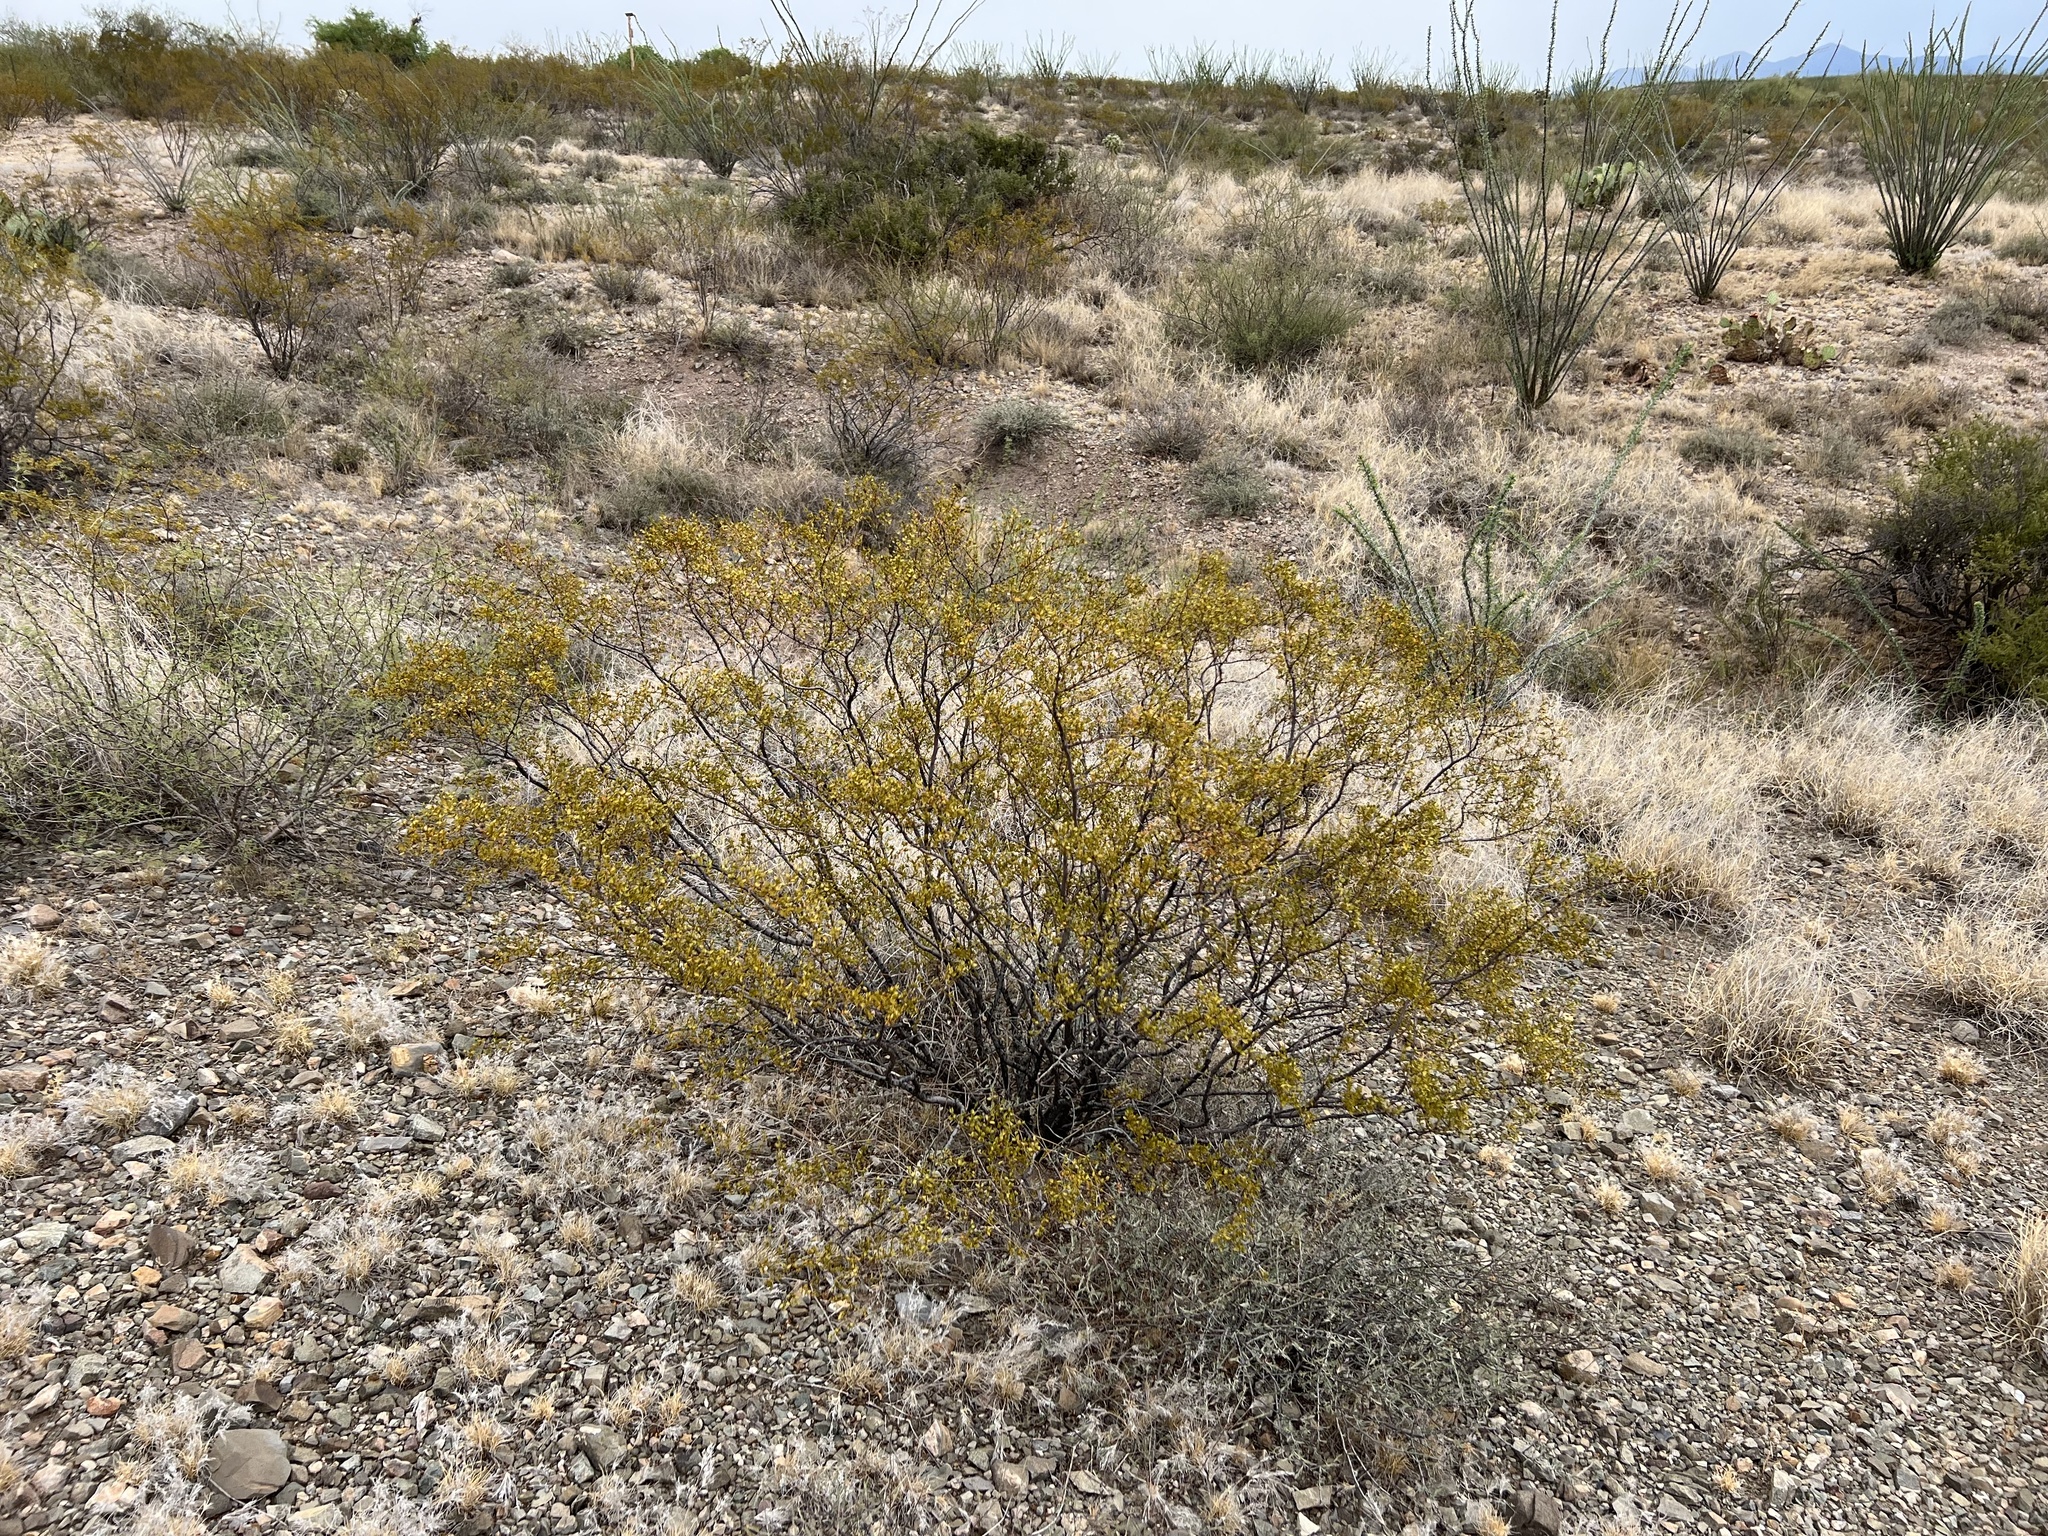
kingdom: Plantae
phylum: Tracheophyta
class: Magnoliopsida
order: Zygophyllales
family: Zygophyllaceae
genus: Larrea
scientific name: Larrea tridentata
